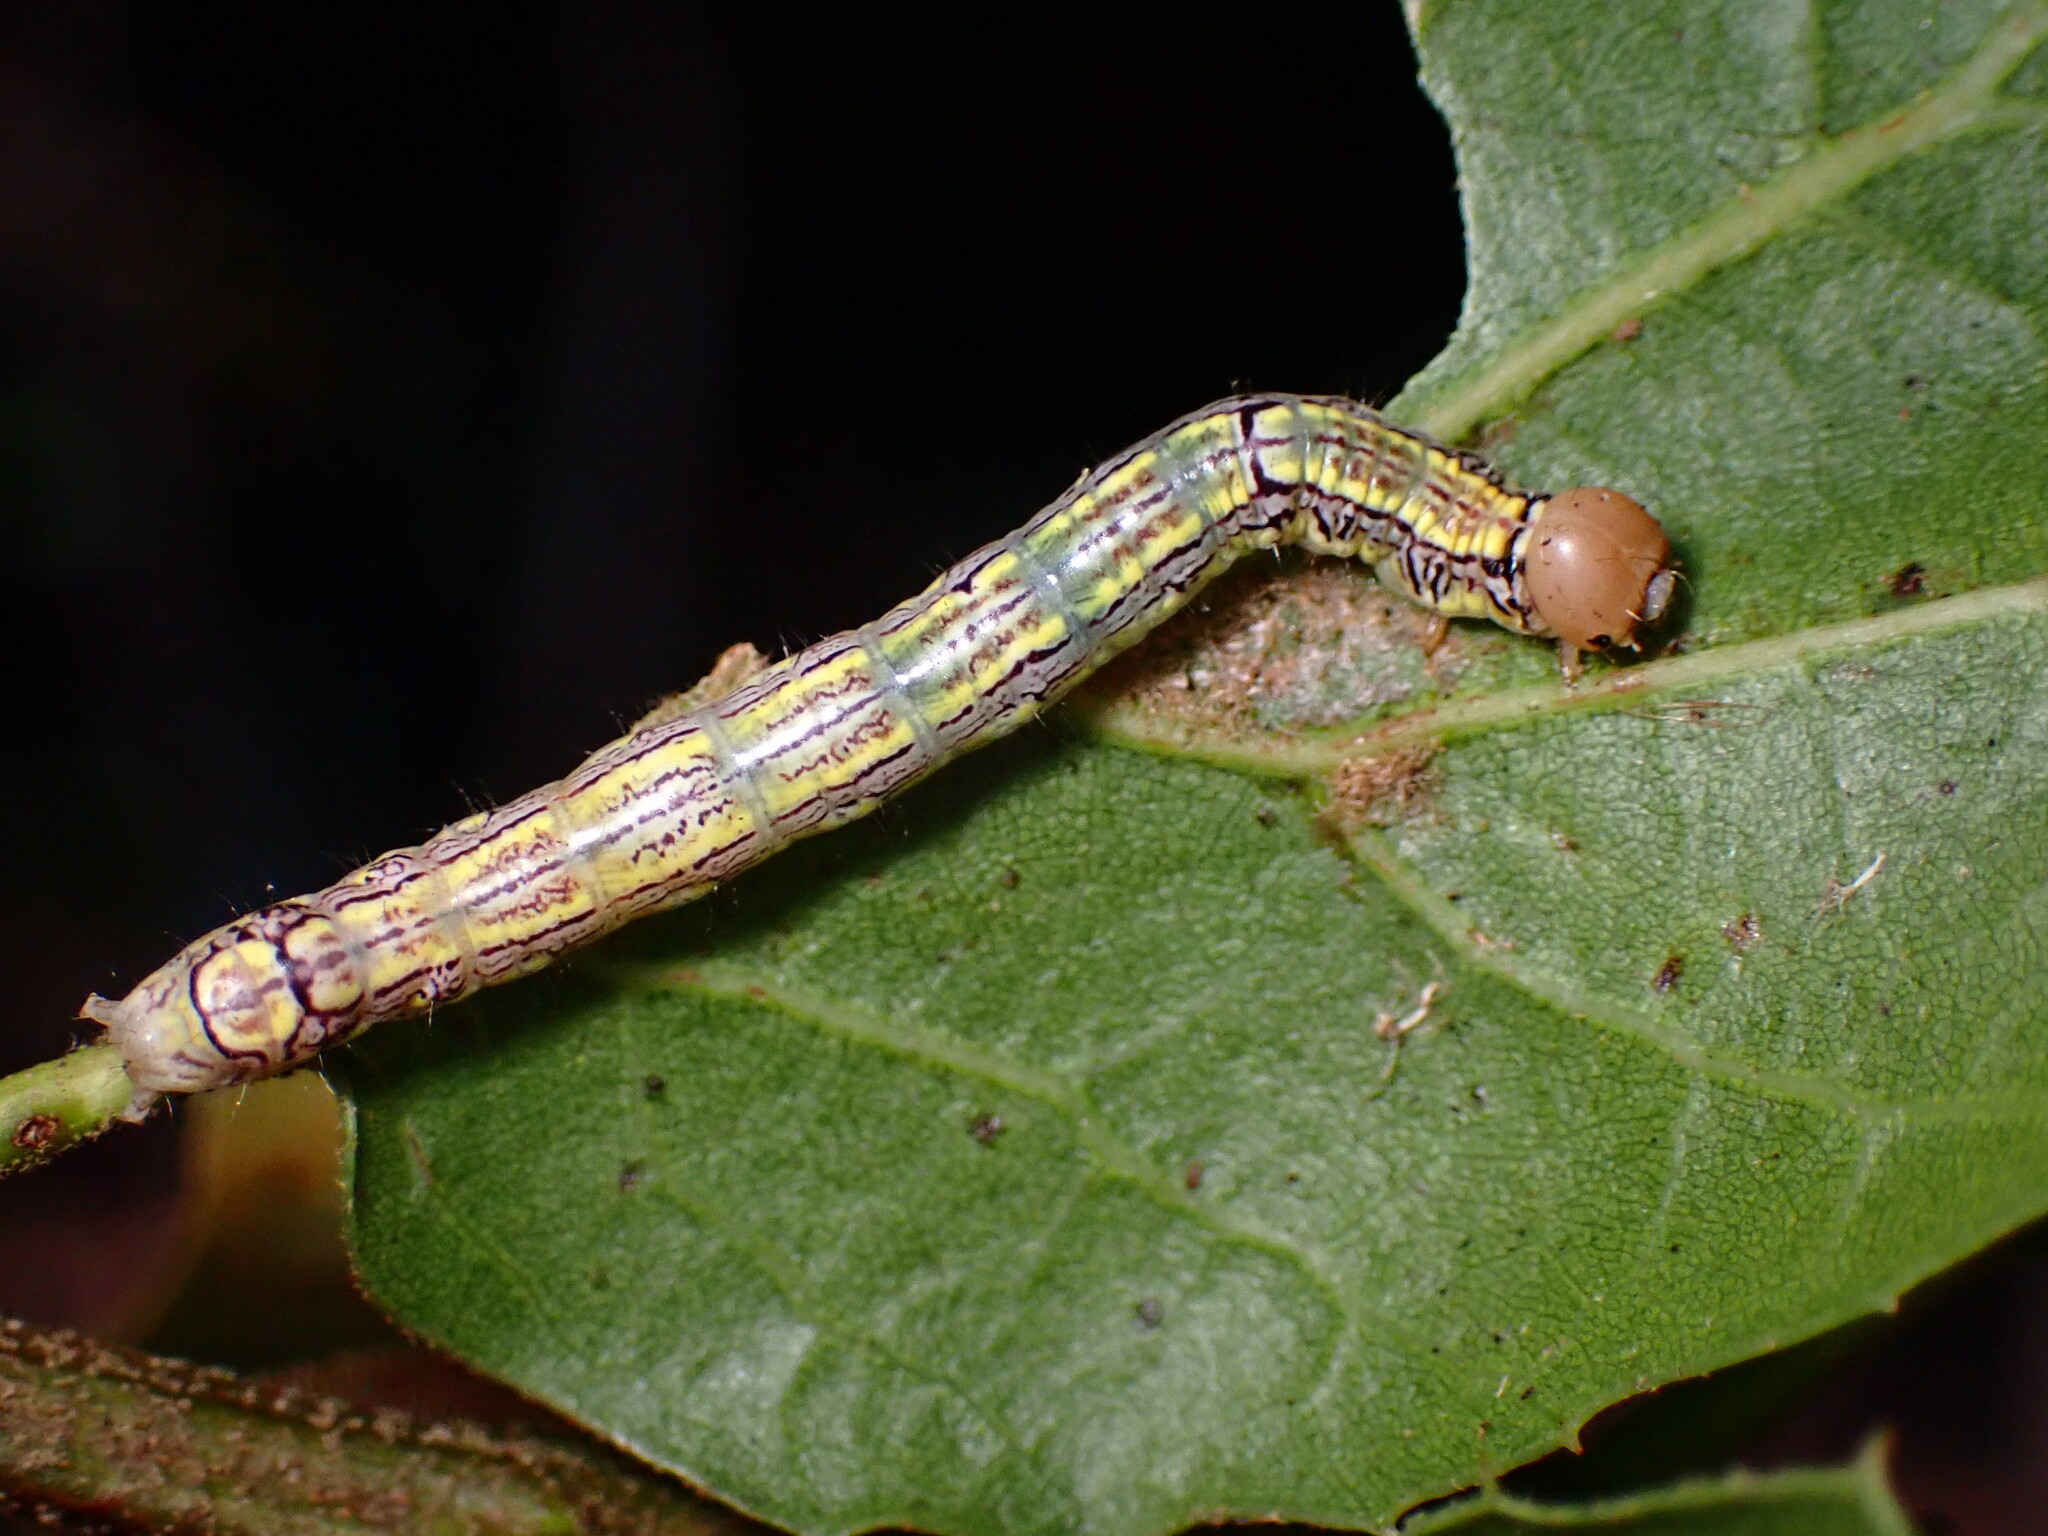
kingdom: Animalia
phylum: Arthropoda
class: Insecta
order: Lepidoptera
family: Notodontidae
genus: Phryganidia
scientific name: Phryganidia californica
